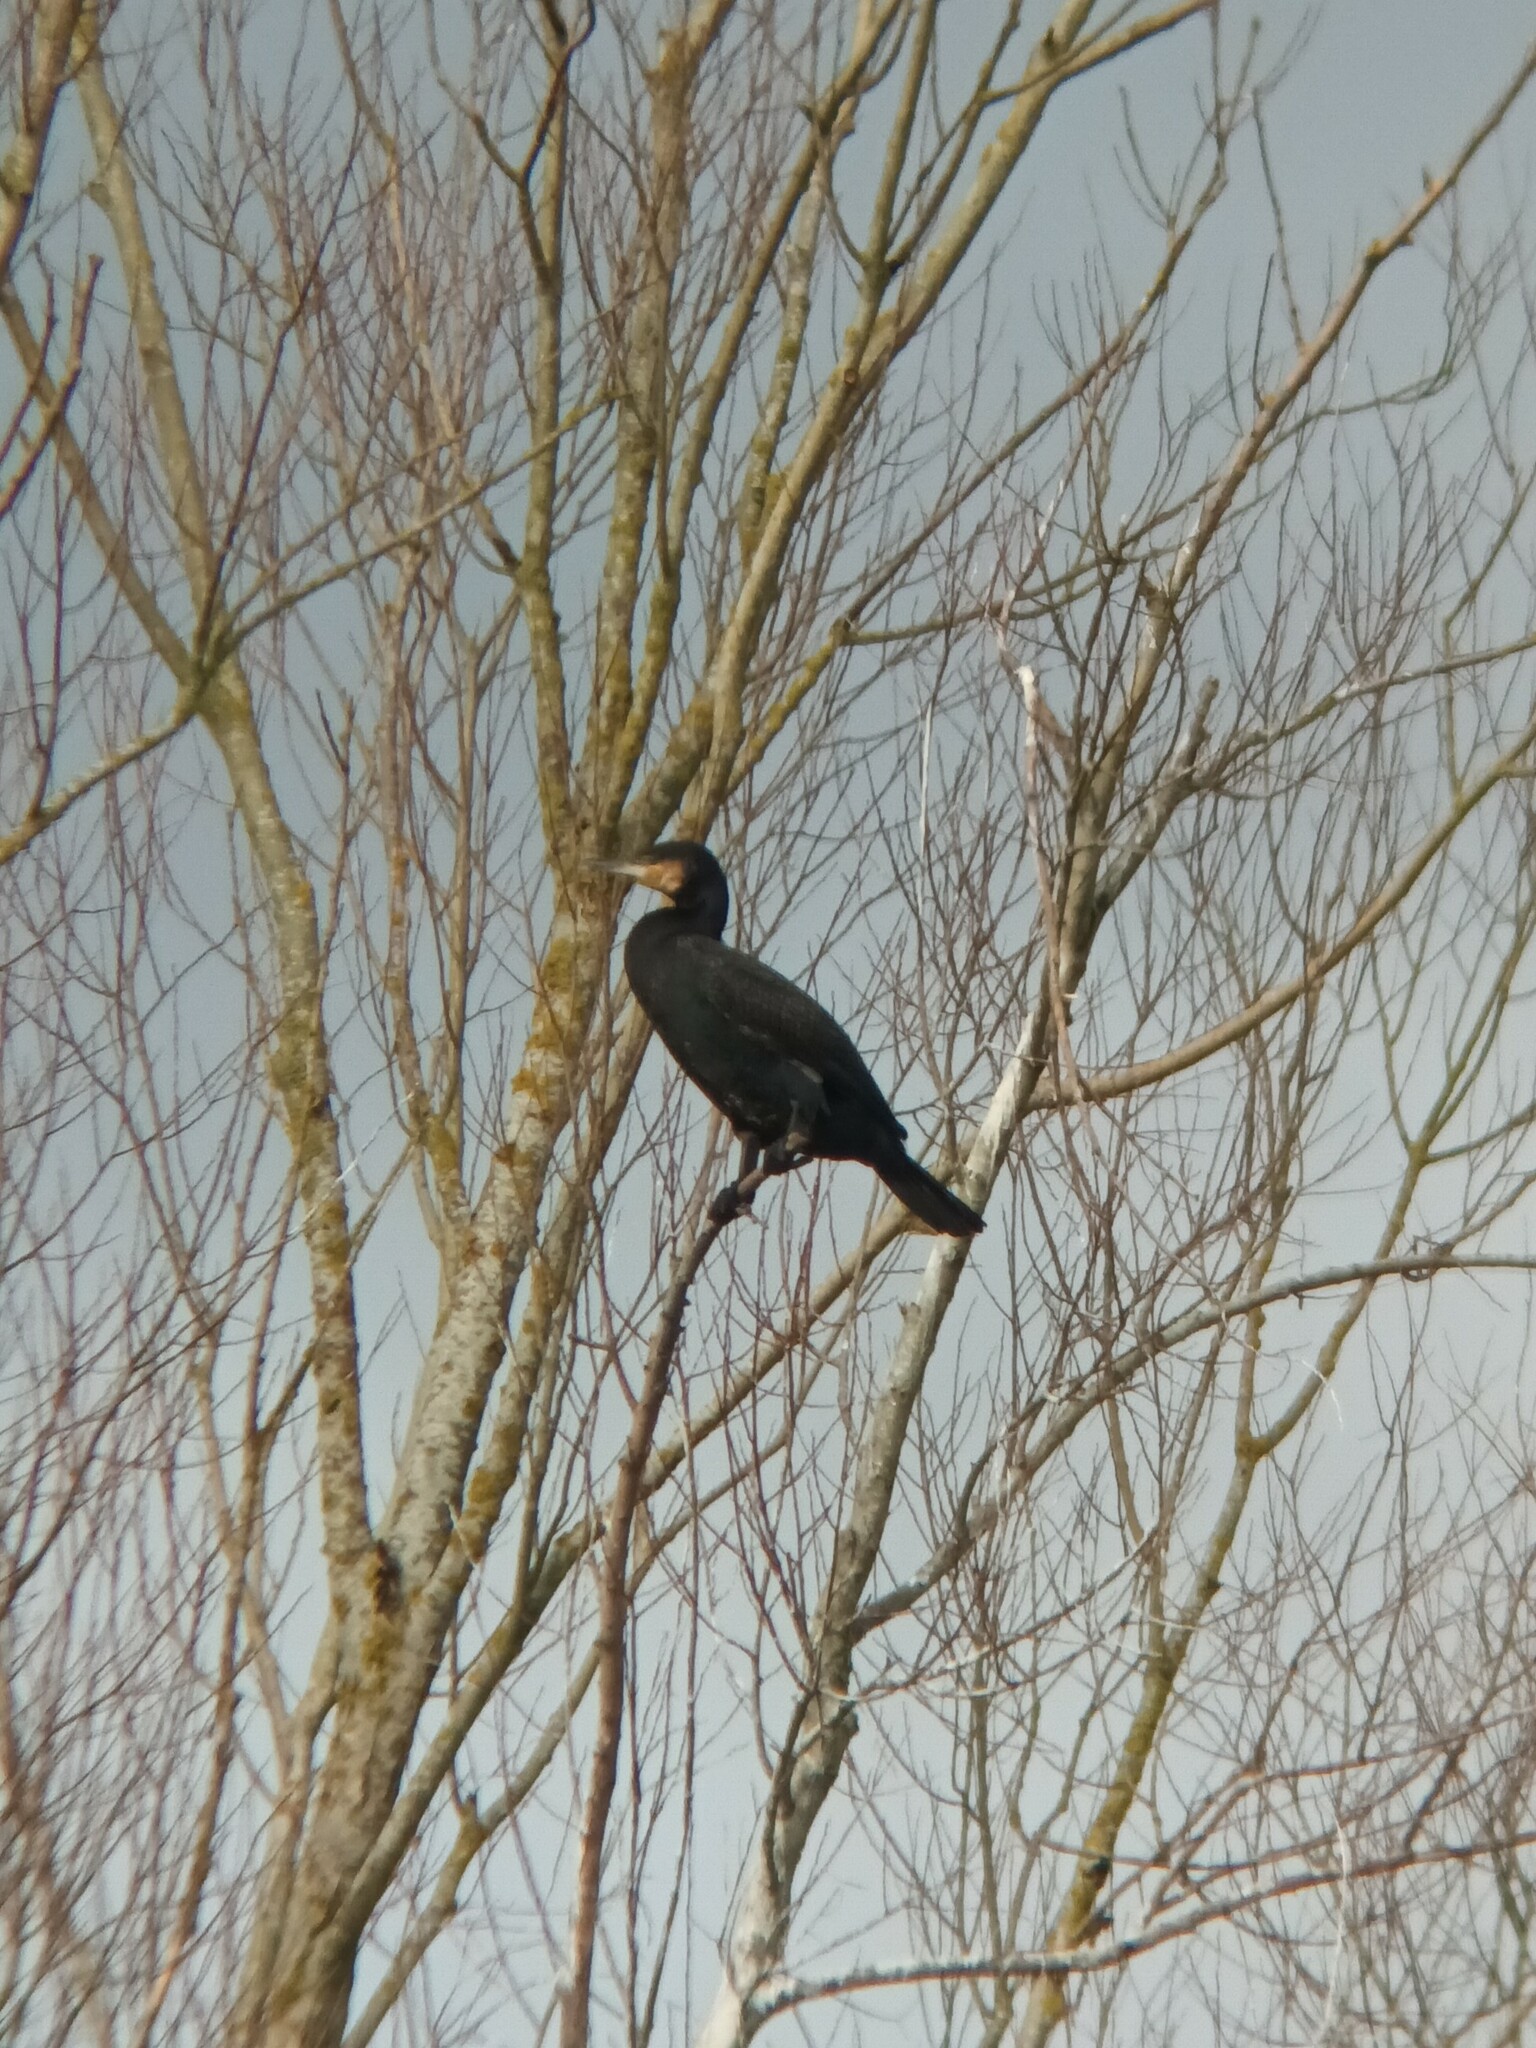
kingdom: Animalia
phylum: Chordata
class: Aves
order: Suliformes
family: Phalacrocoracidae
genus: Phalacrocorax
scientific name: Phalacrocorax carbo
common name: Great cormorant
